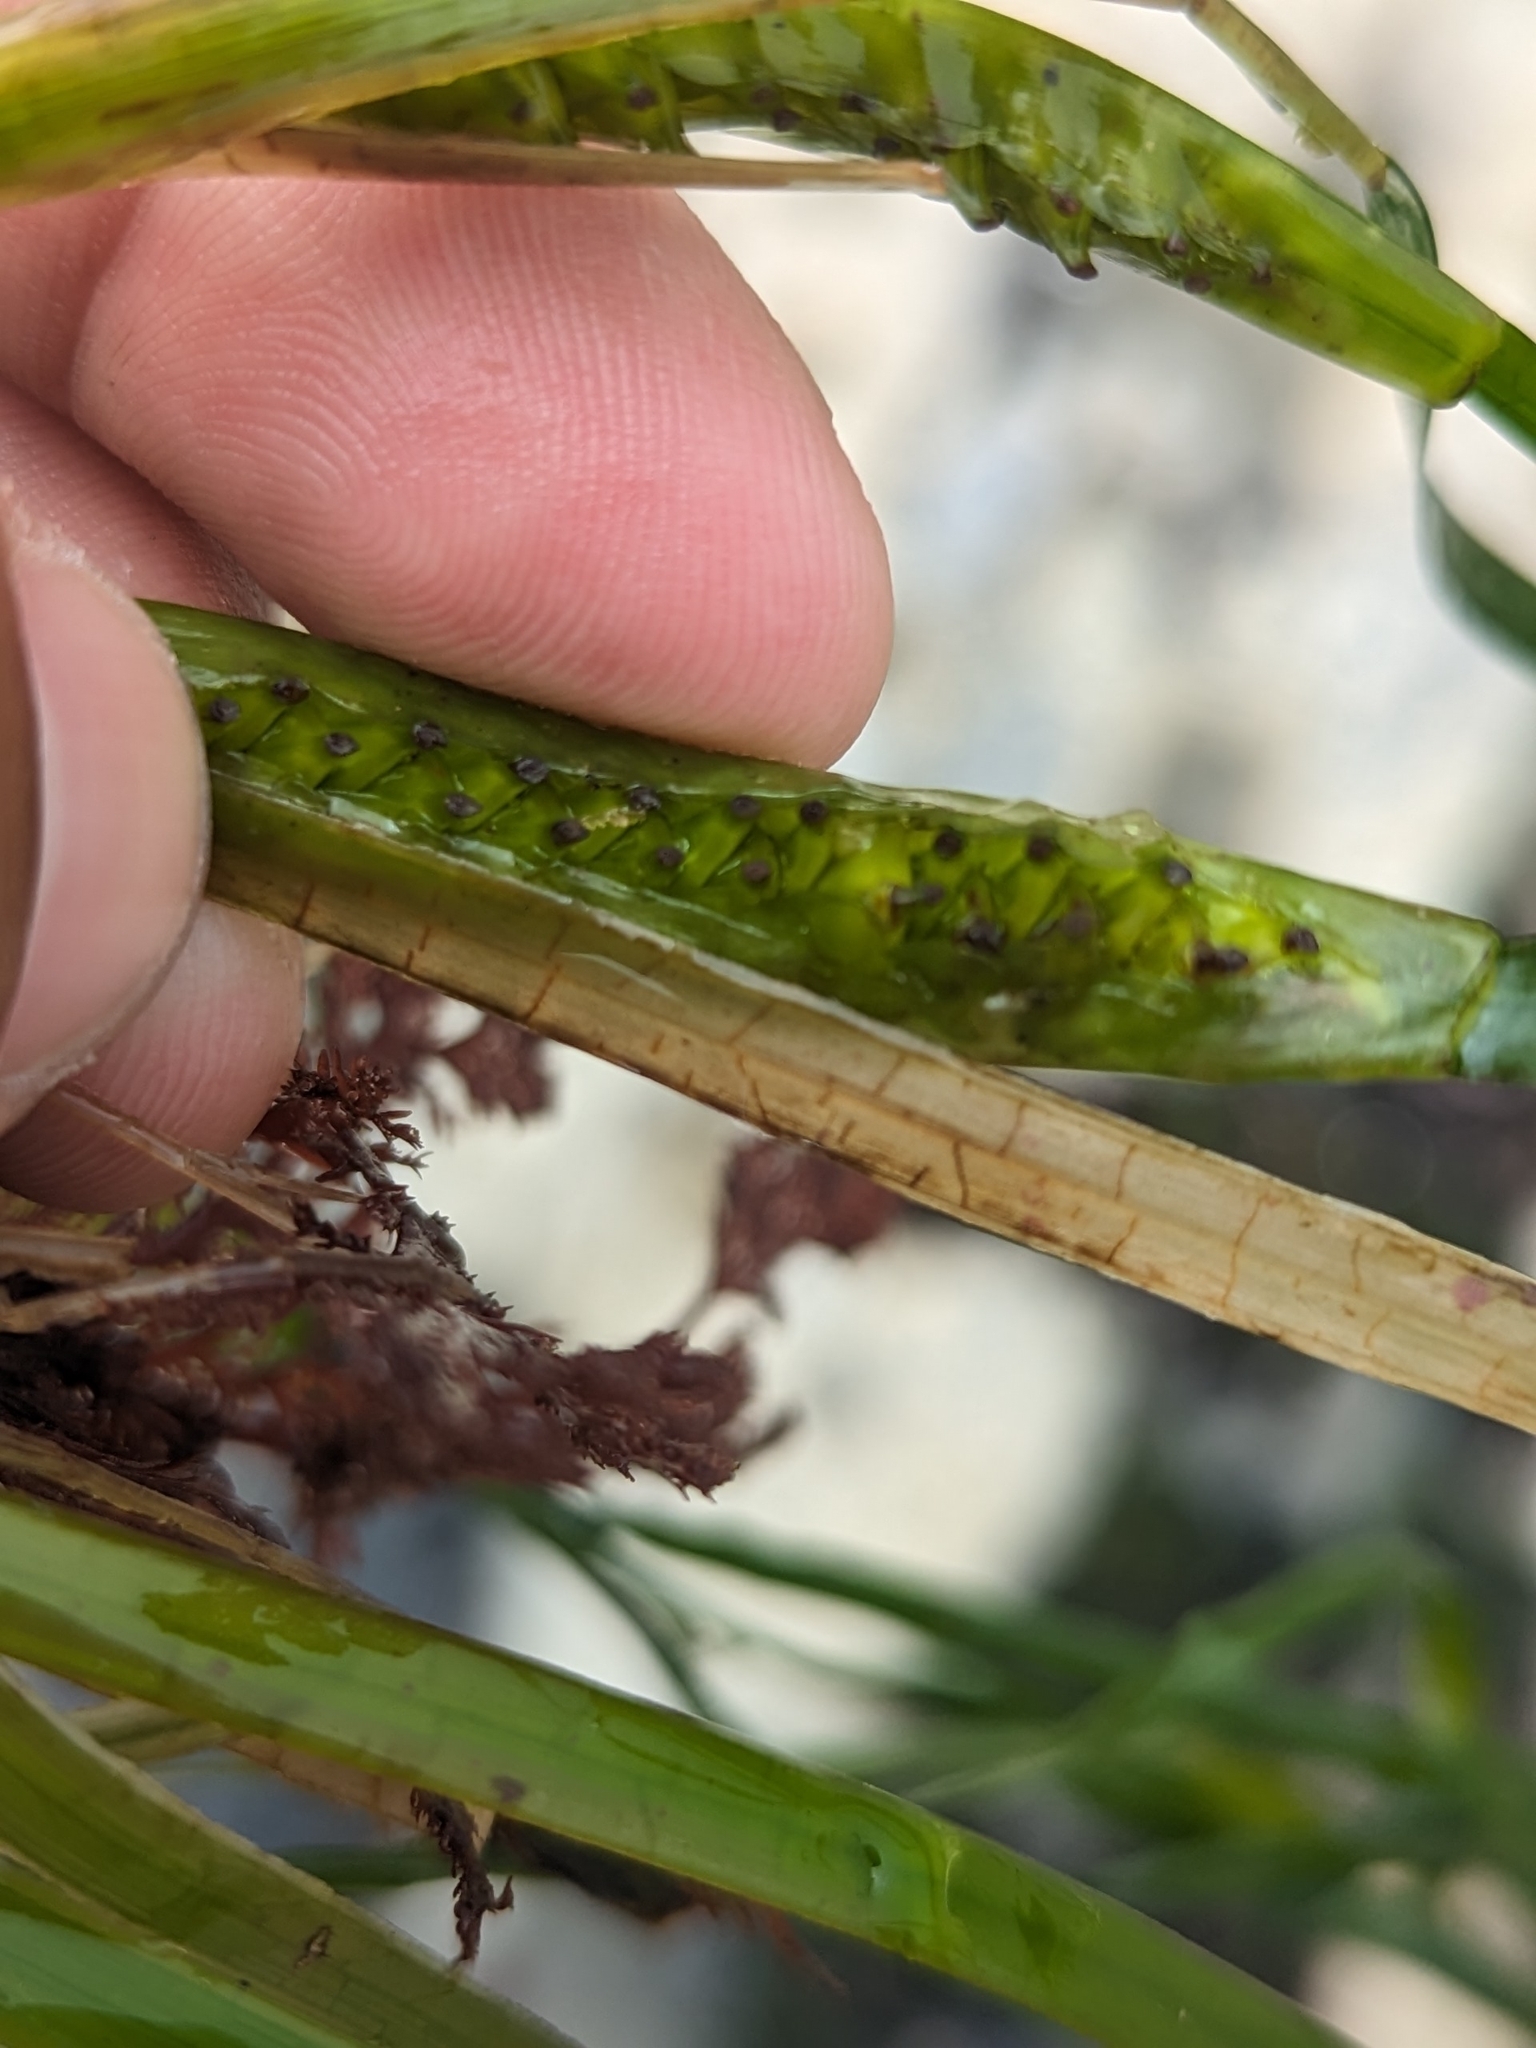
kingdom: Plantae
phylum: Tracheophyta
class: Liliopsida
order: Alismatales
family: Zosteraceae
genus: Phyllospadix
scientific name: Phyllospadix scouleri
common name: Species code: ps
